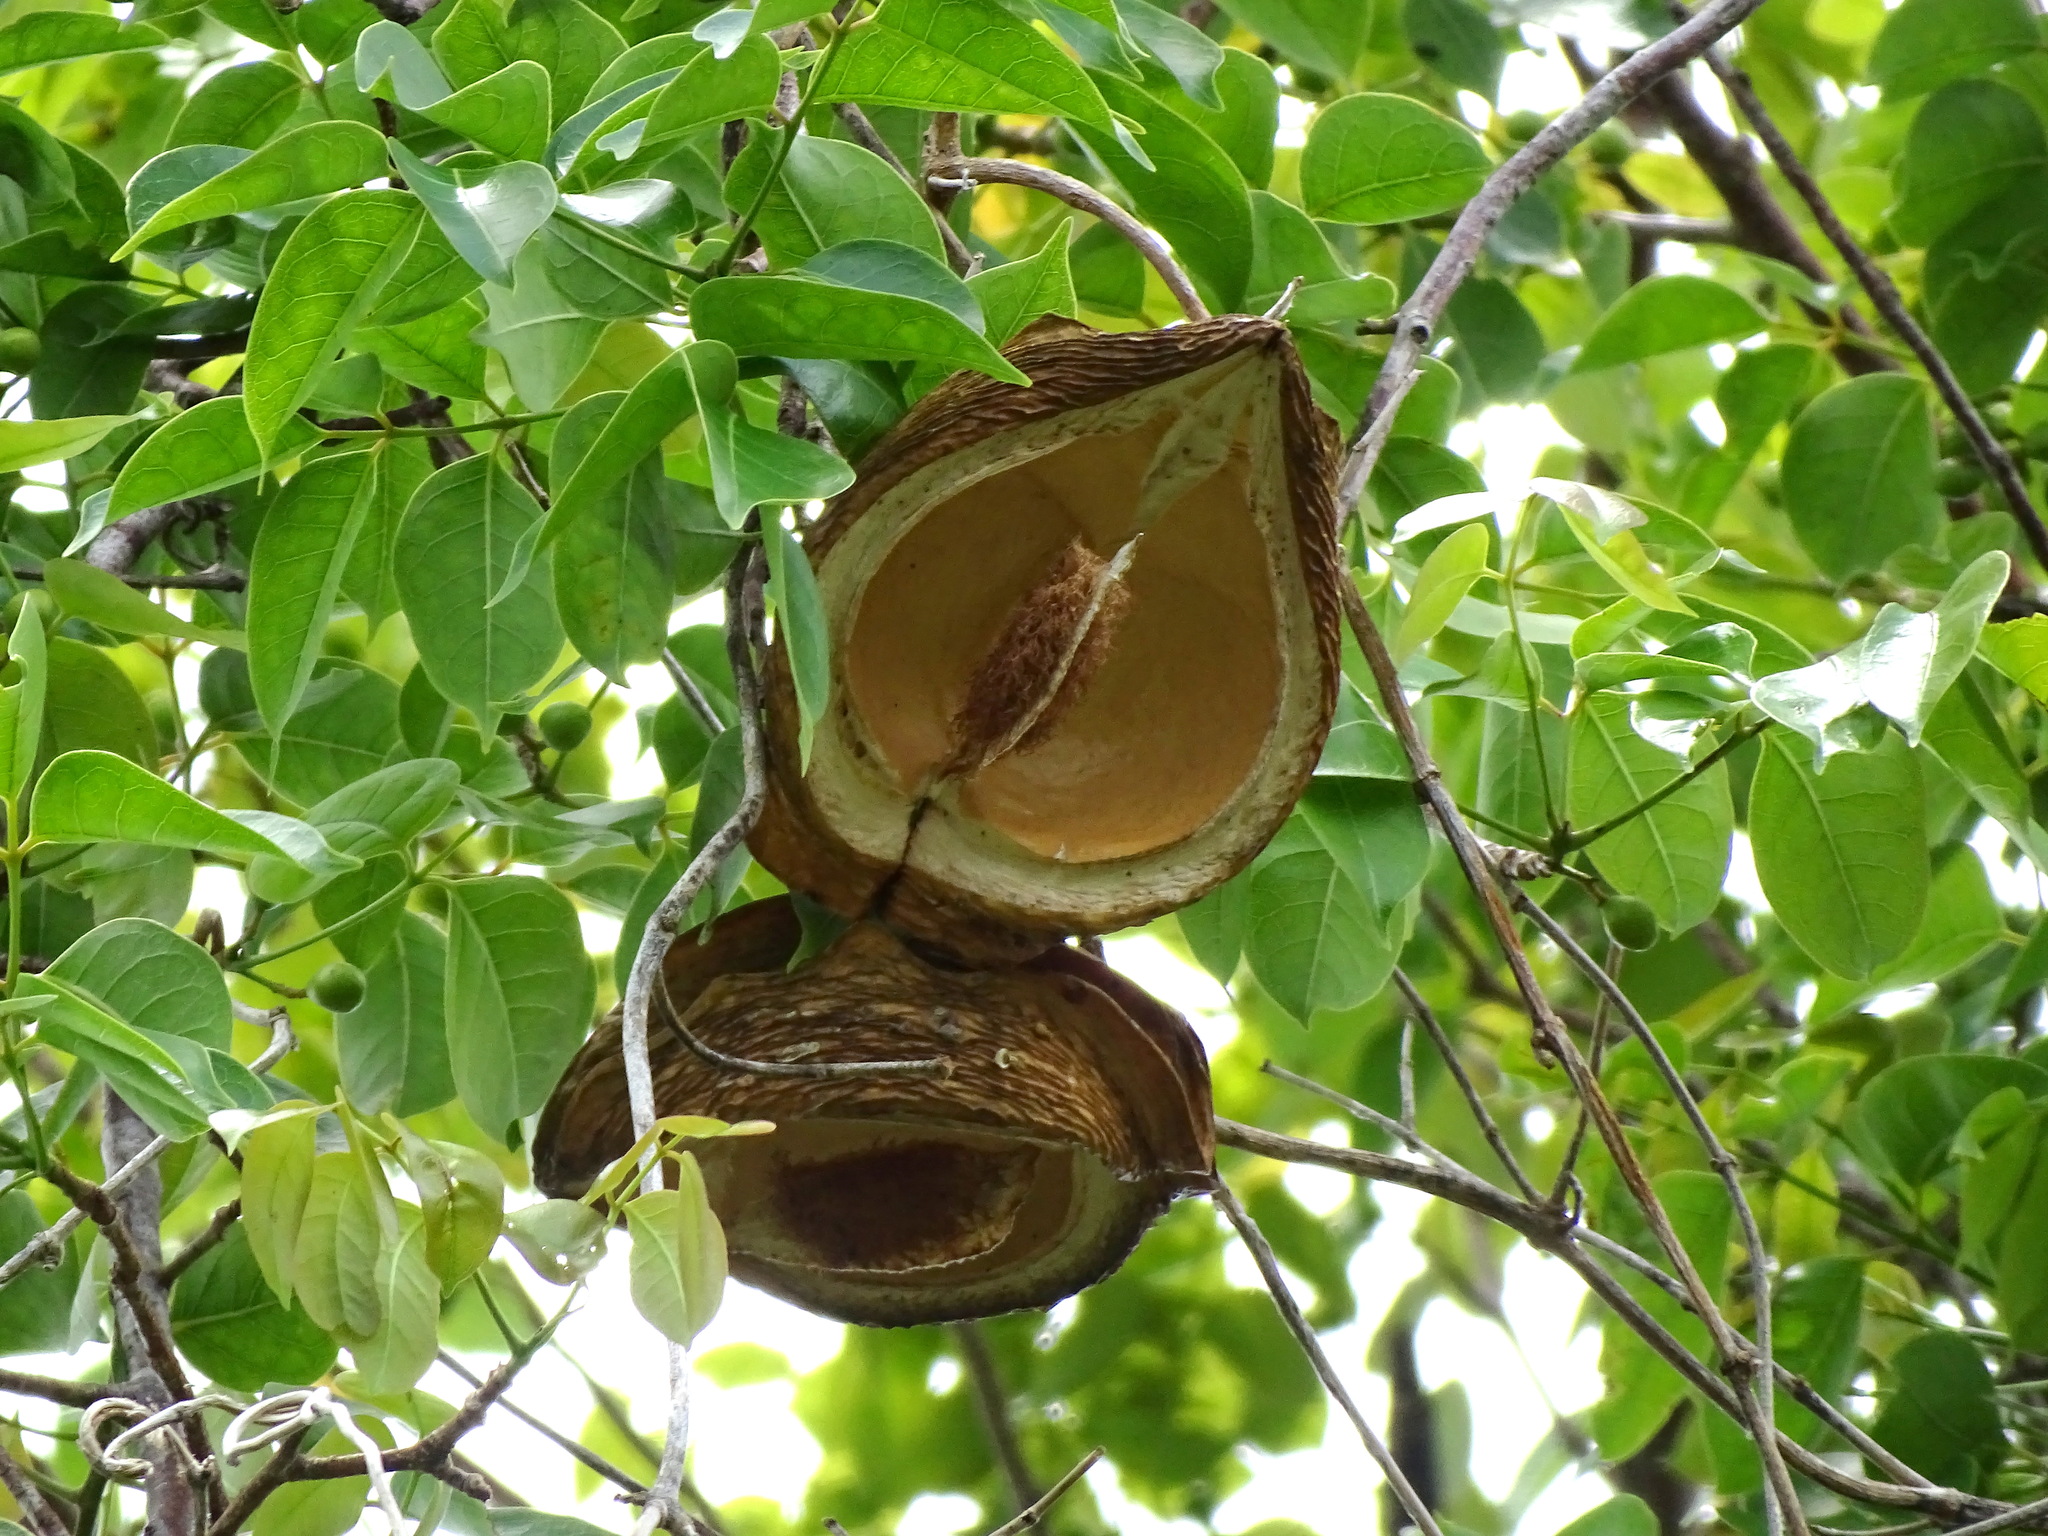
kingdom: Plantae
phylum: Tracheophyta
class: Magnoliopsida
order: Gentianales
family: Apocynaceae
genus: Gonolobus
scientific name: Gonolobus fraternus
